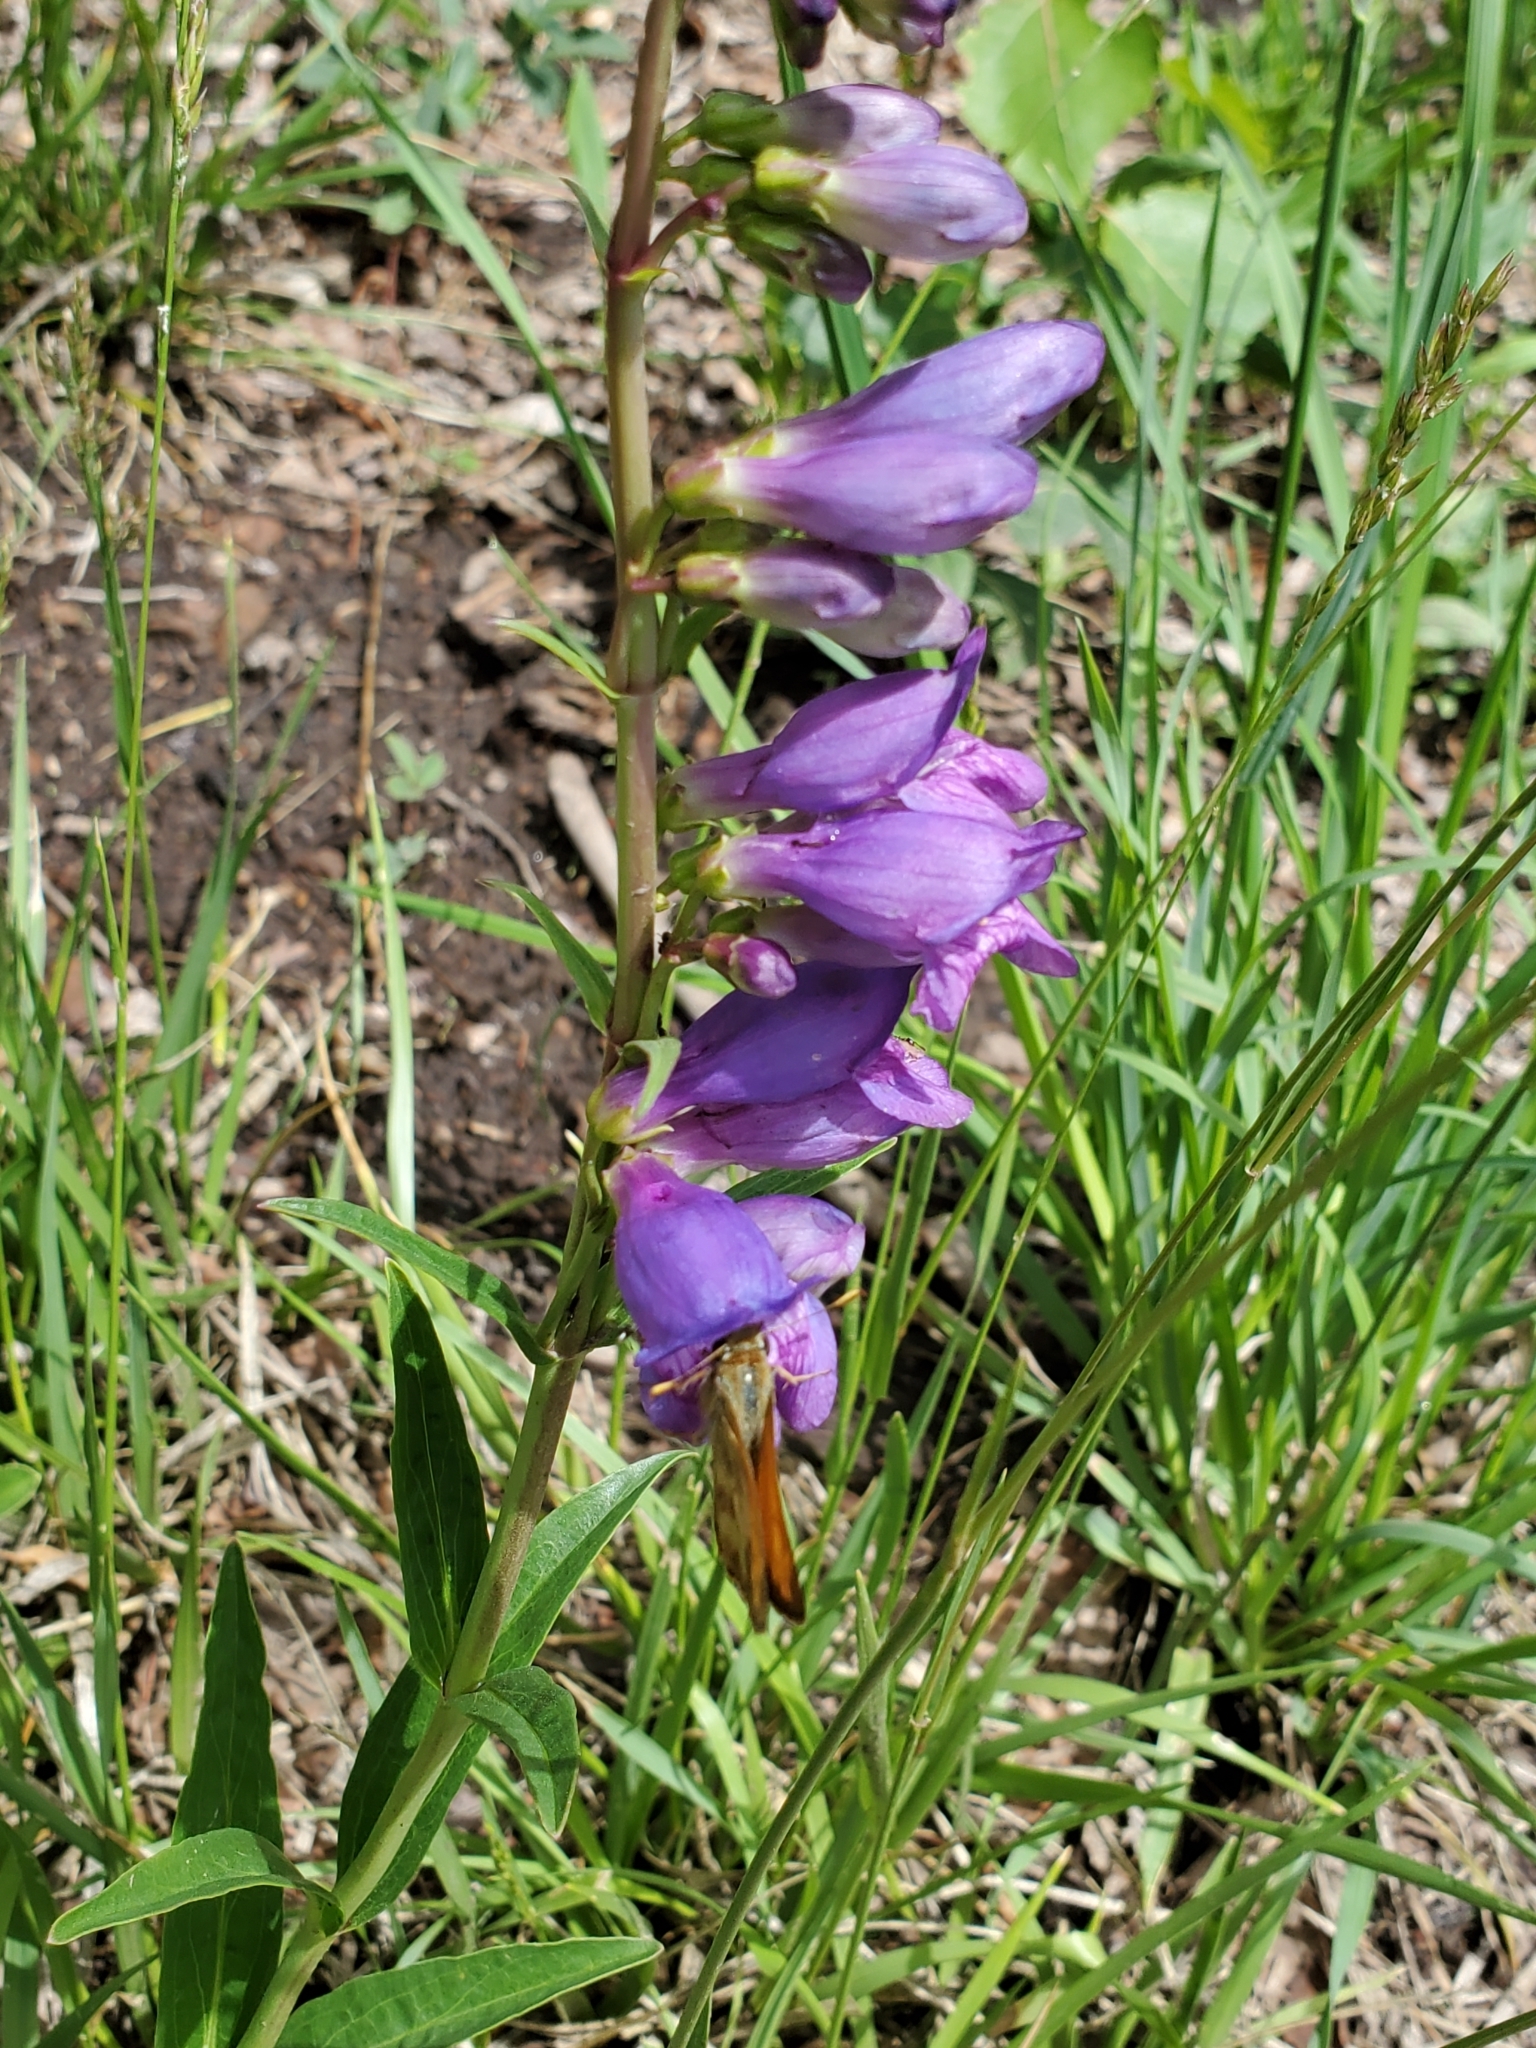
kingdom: Plantae
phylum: Tracheophyta
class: Magnoliopsida
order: Lamiales
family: Plantaginaceae
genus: Penstemon
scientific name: Penstemon strictus
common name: Rocky mountain penstemon
